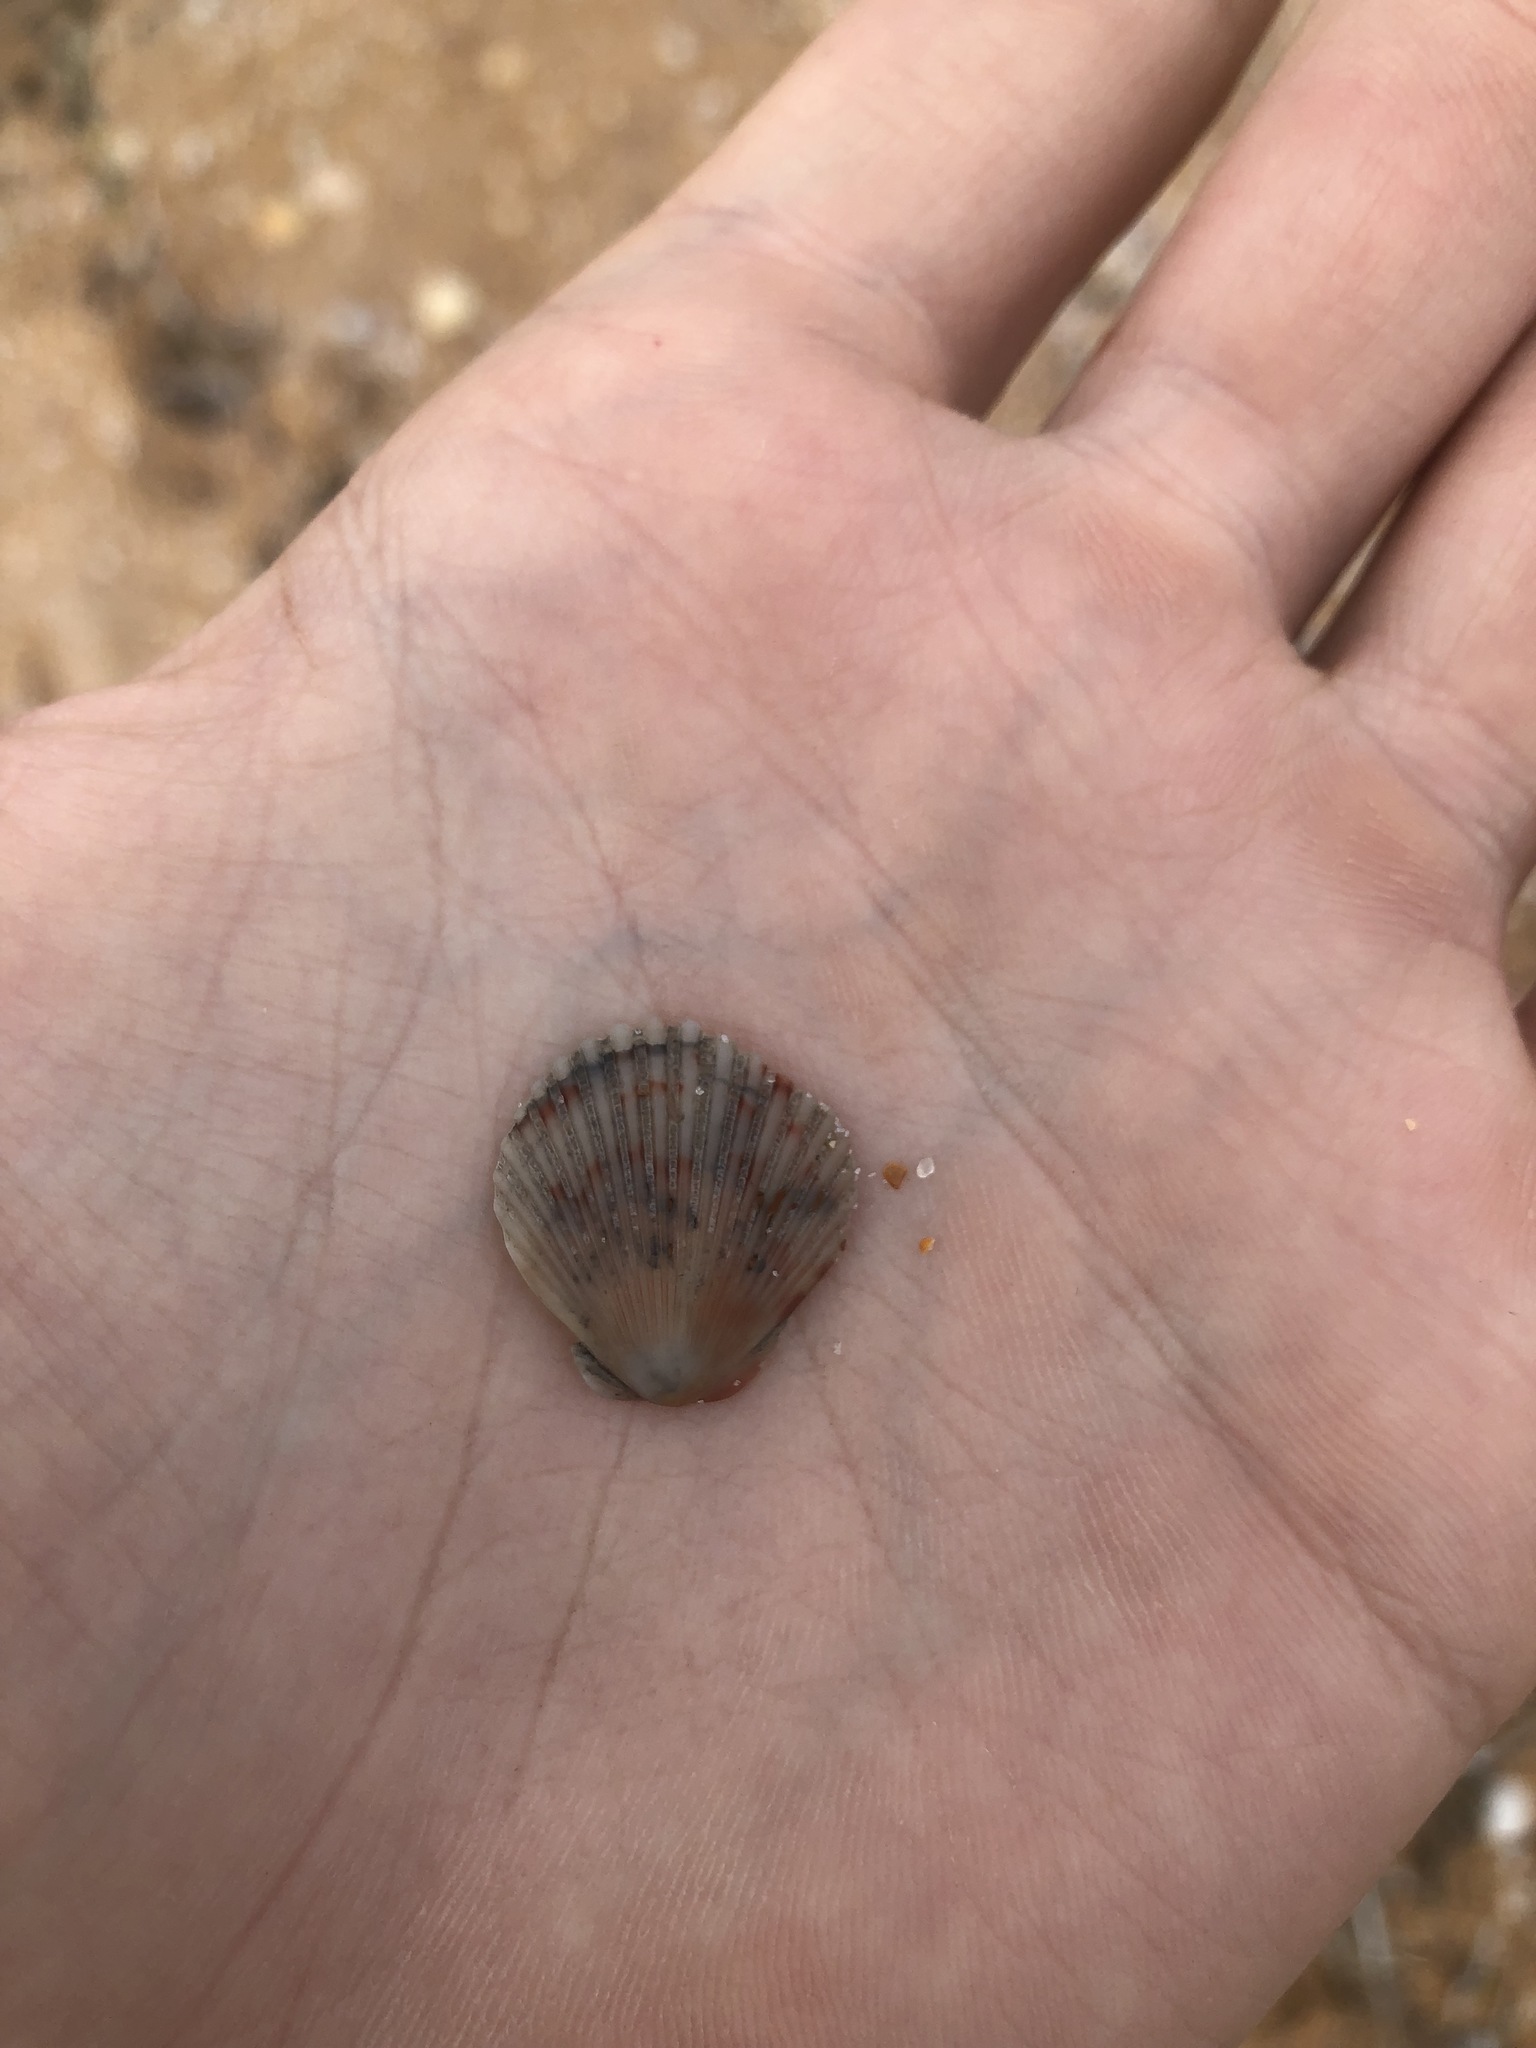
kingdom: Animalia
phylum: Mollusca
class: Bivalvia
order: Pectinida
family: Pectinidae
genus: Argopecten
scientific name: Argopecten gibbus
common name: Atlantic calico scallop
